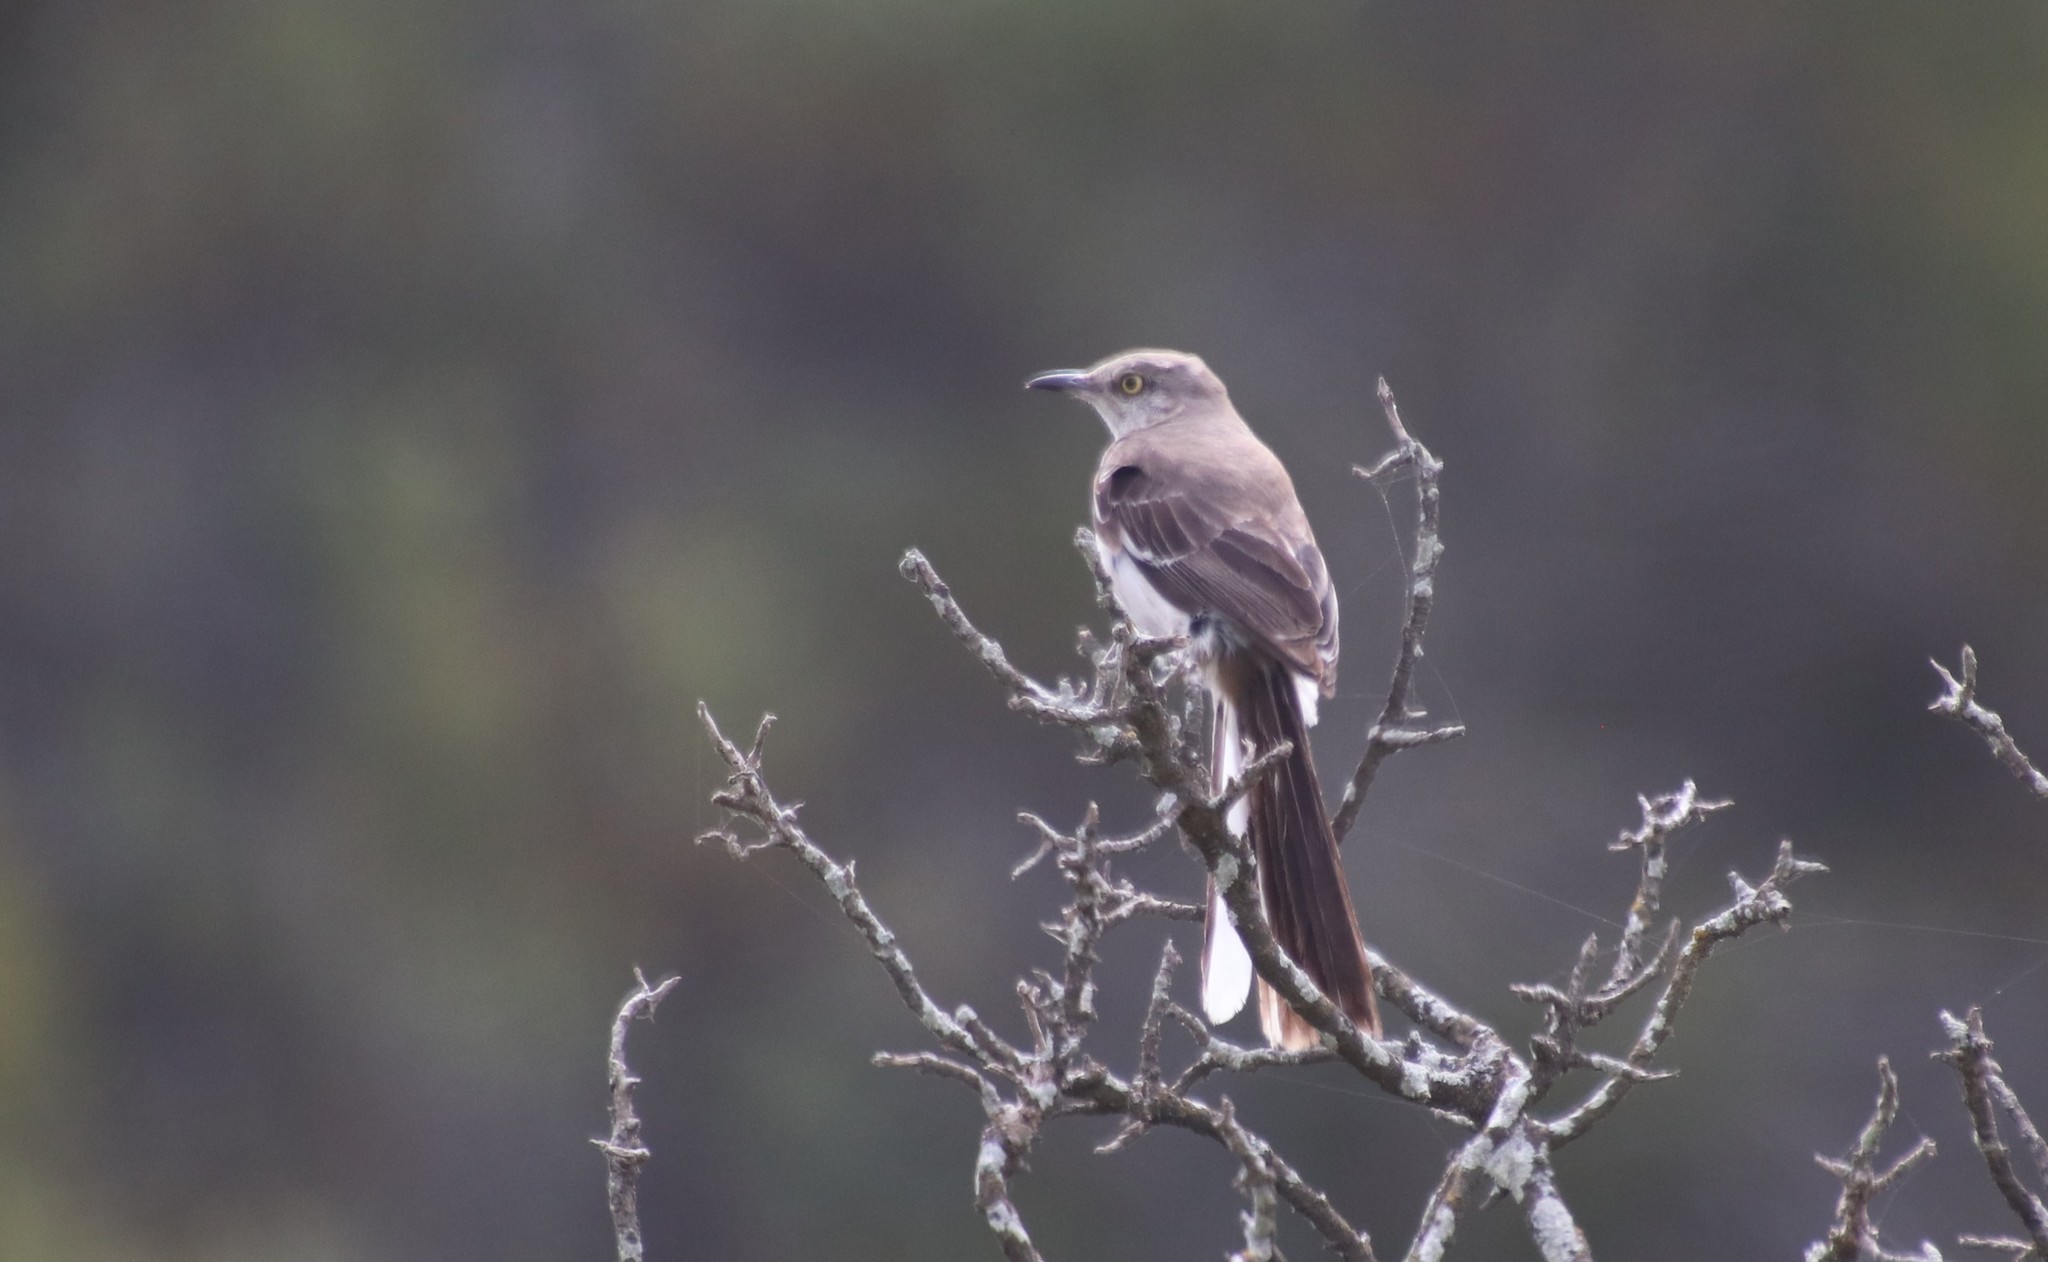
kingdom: Animalia
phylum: Chordata
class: Aves
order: Passeriformes
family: Mimidae
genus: Mimus
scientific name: Mimus polyglottos
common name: Northern mockingbird
